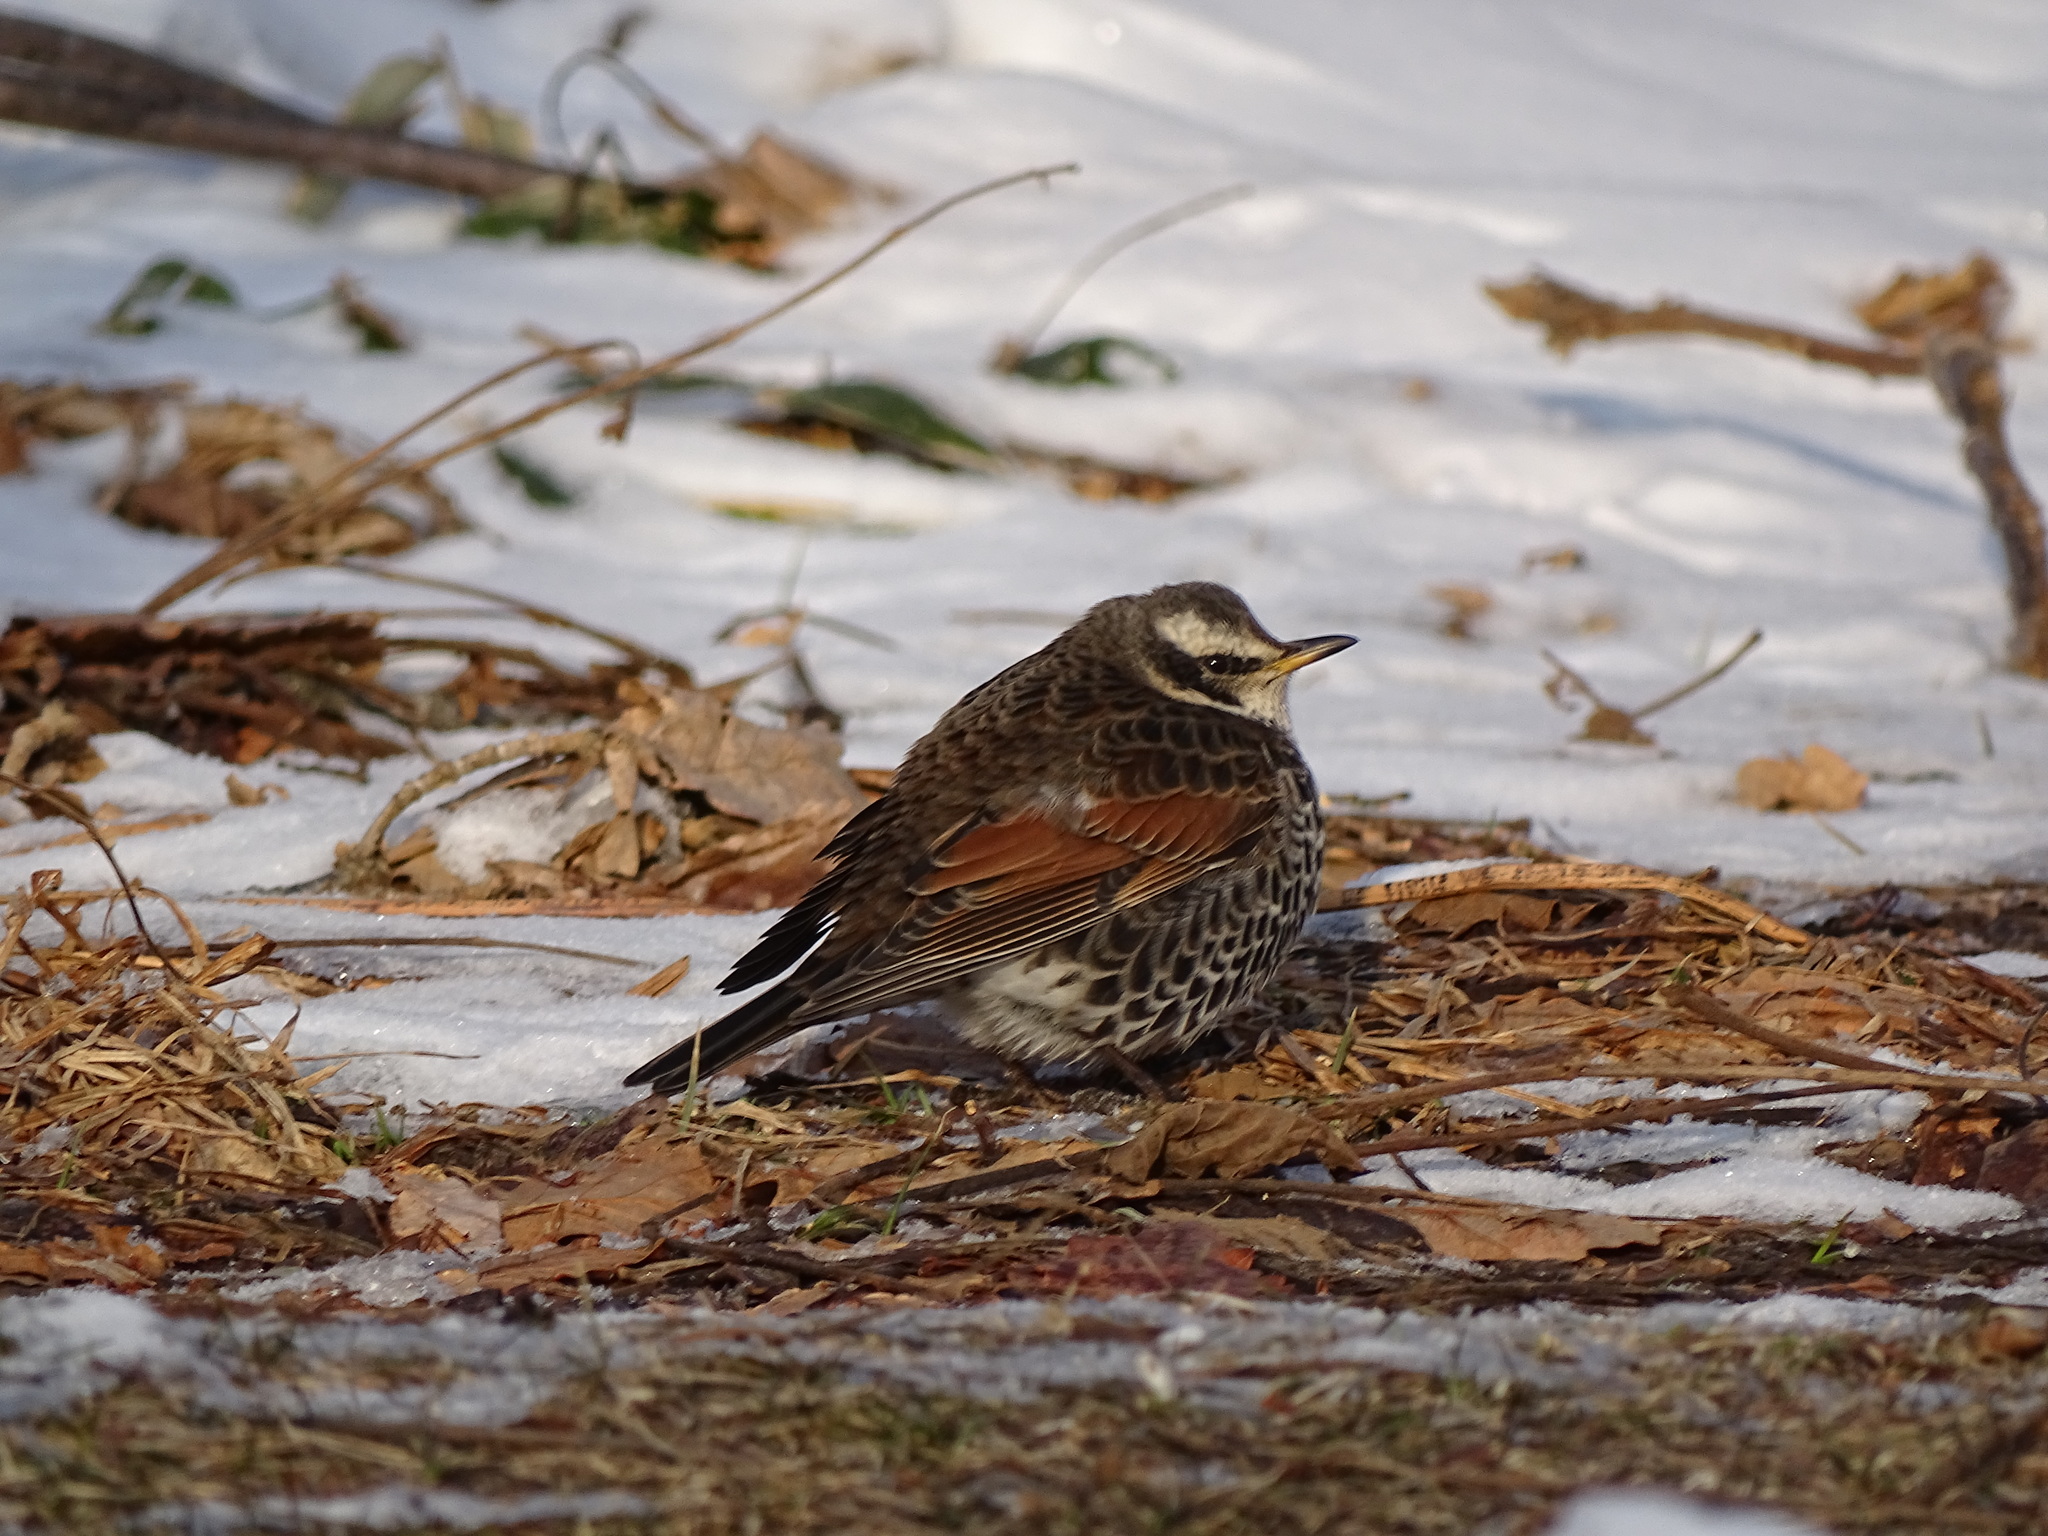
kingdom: Animalia
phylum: Chordata
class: Aves
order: Passeriformes
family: Turdidae
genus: Turdus
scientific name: Turdus eunomus
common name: Dusky thrush
